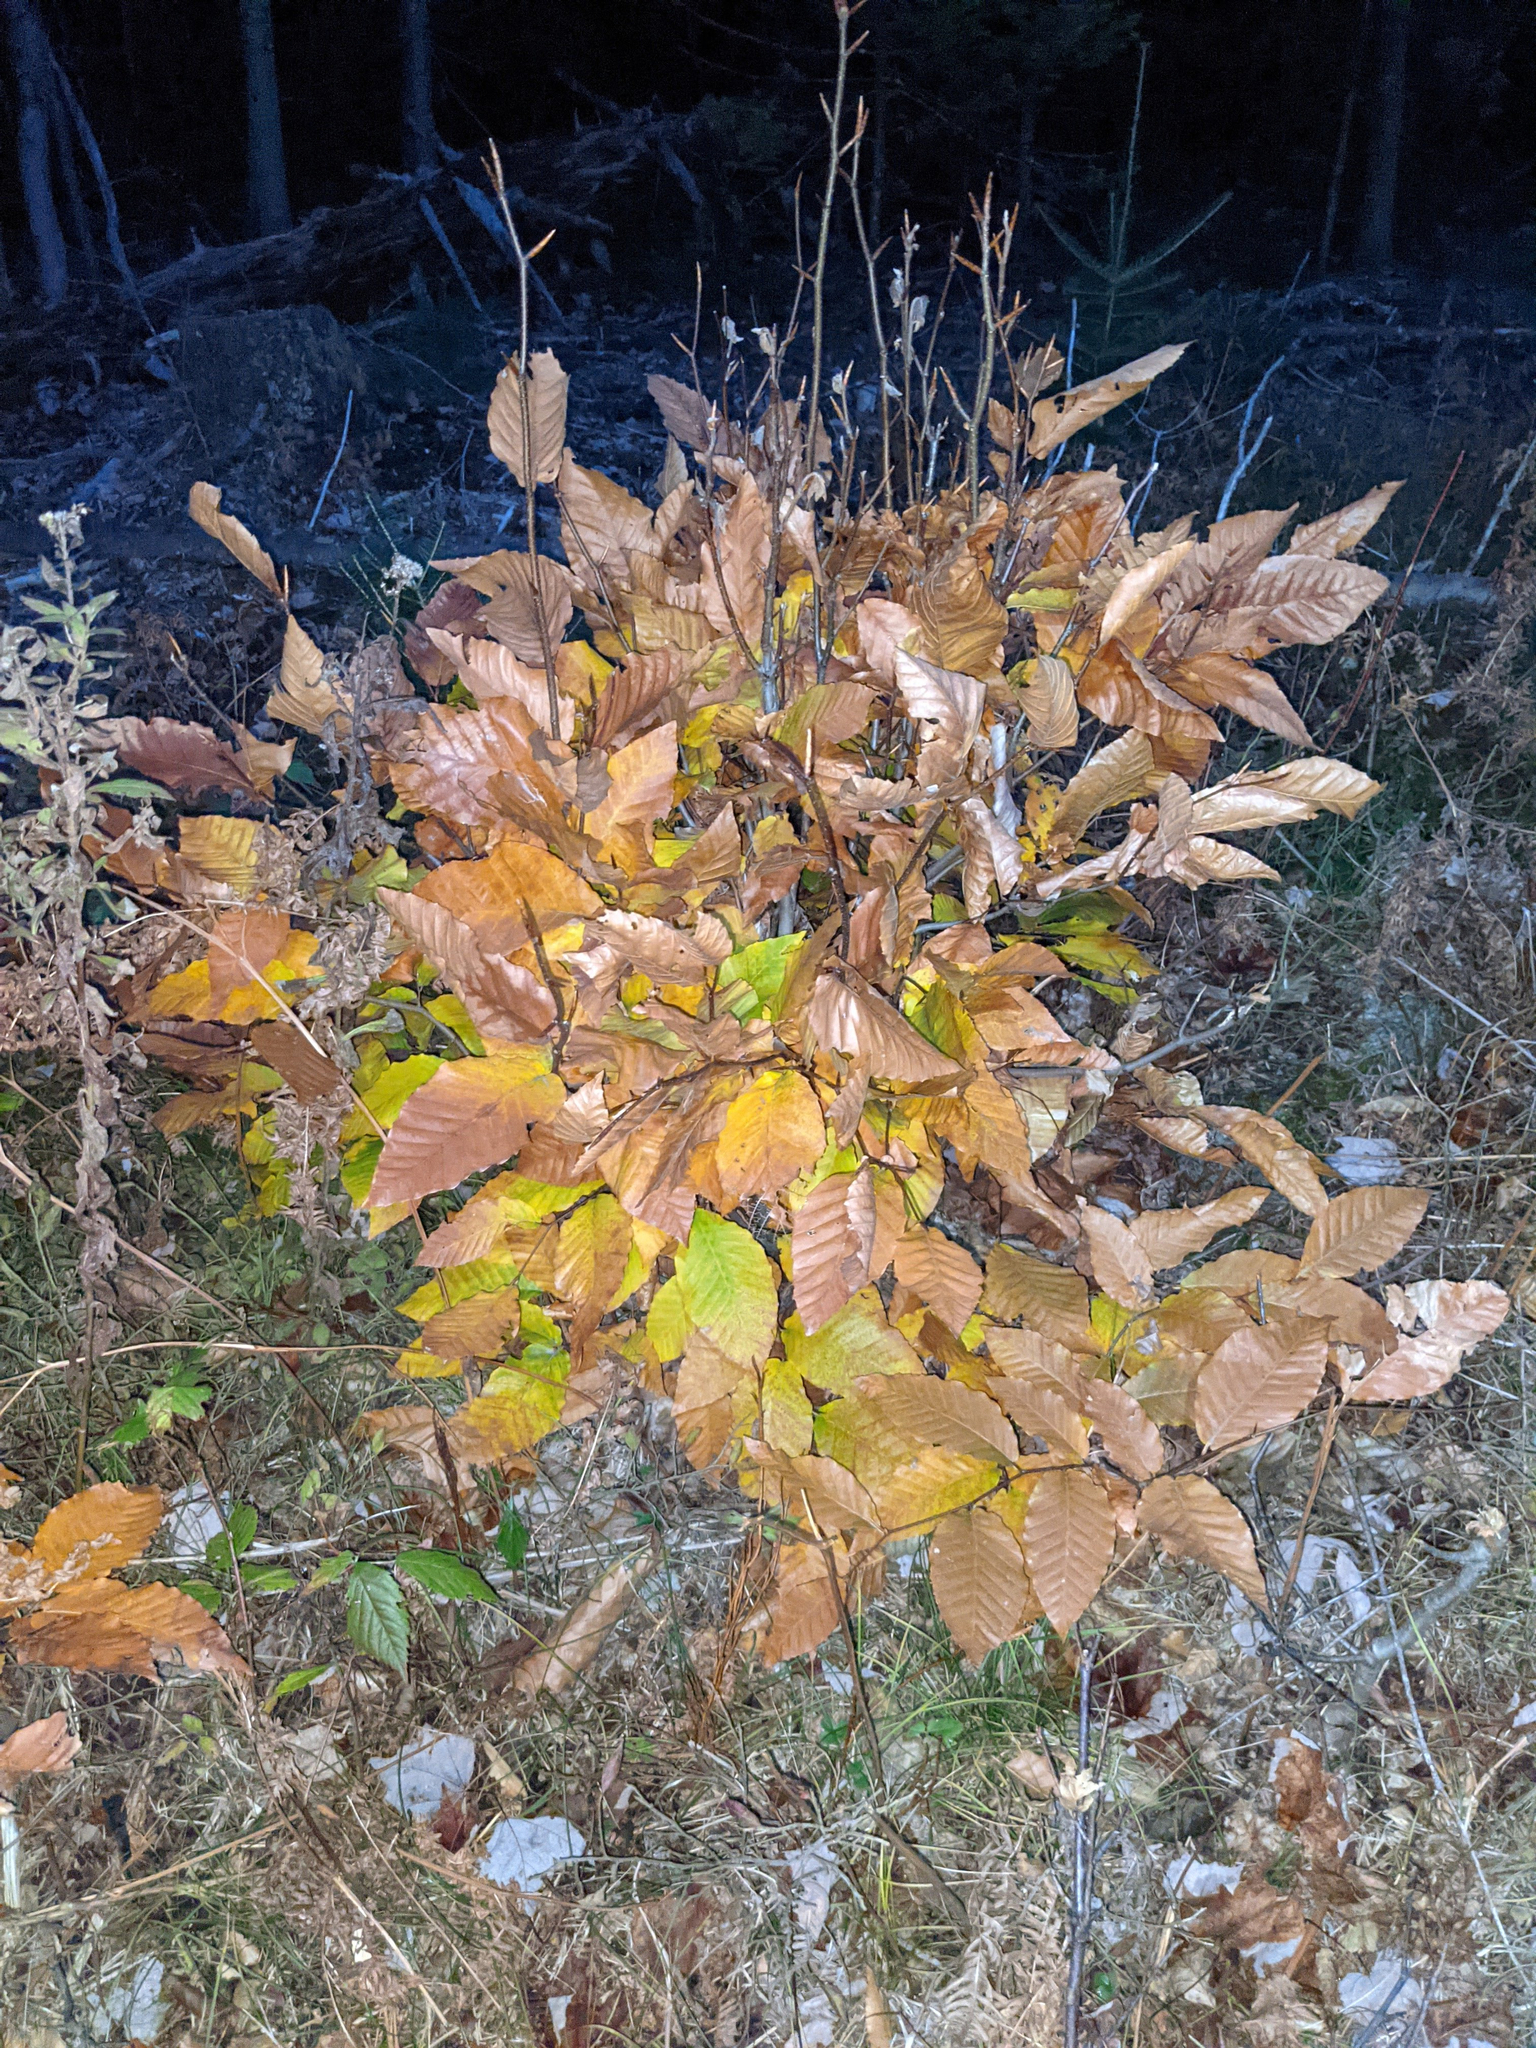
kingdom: Plantae
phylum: Tracheophyta
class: Magnoliopsida
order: Fagales
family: Fagaceae
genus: Fagus
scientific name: Fagus grandifolia
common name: American beech
